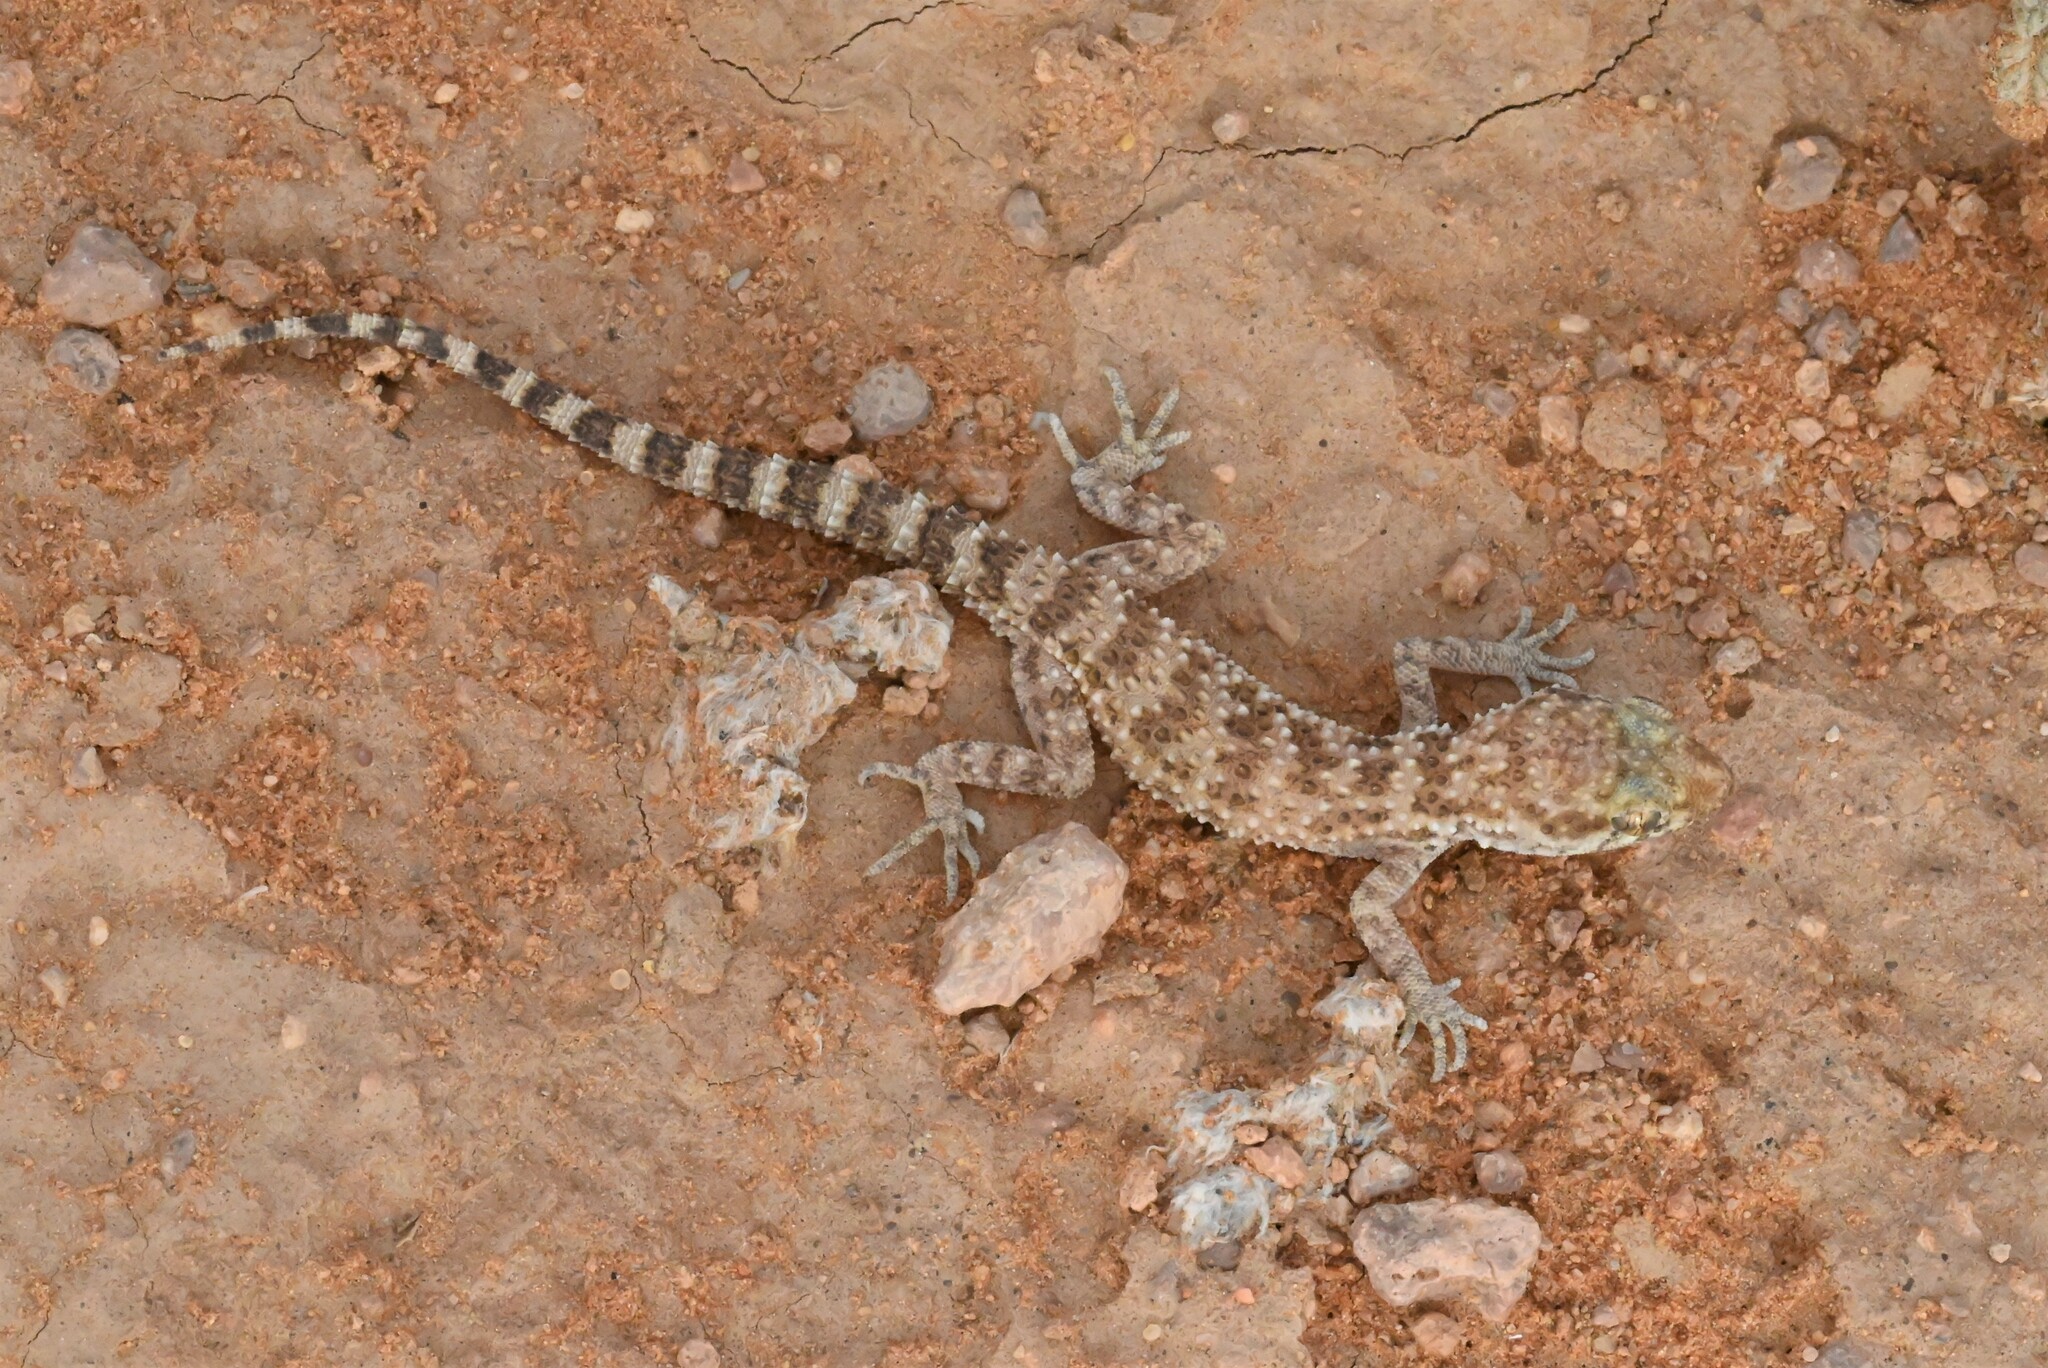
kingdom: Animalia
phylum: Chordata
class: Squamata
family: Gekkonidae
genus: Bunopus
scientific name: Bunopus tuberculatus
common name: Southern tuberculated gecko
